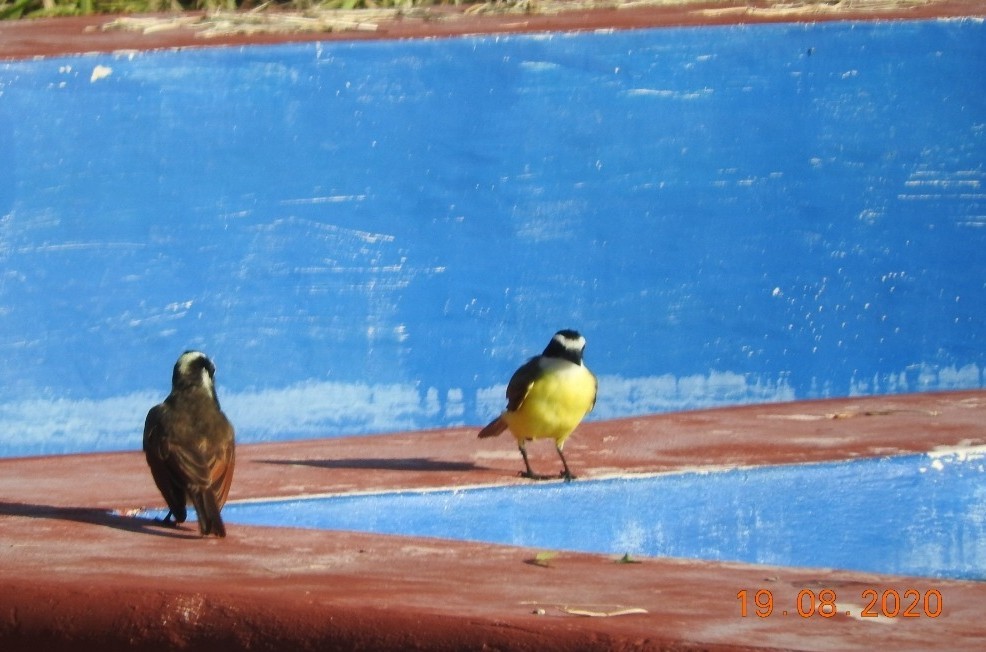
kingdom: Animalia
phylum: Chordata
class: Aves
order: Passeriformes
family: Tyrannidae
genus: Pitangus
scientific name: Pitangus sulphuratus
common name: Great kiskadee
